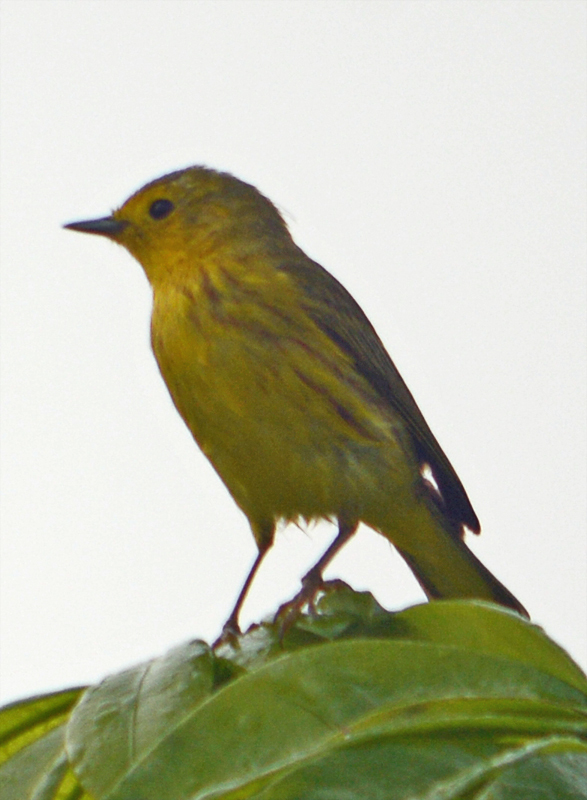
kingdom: Animalia
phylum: Chordata
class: Aves
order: Passeriformes
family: Parulidae
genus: Setophaga
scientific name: Setophaga petechia
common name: Yellow warbler
